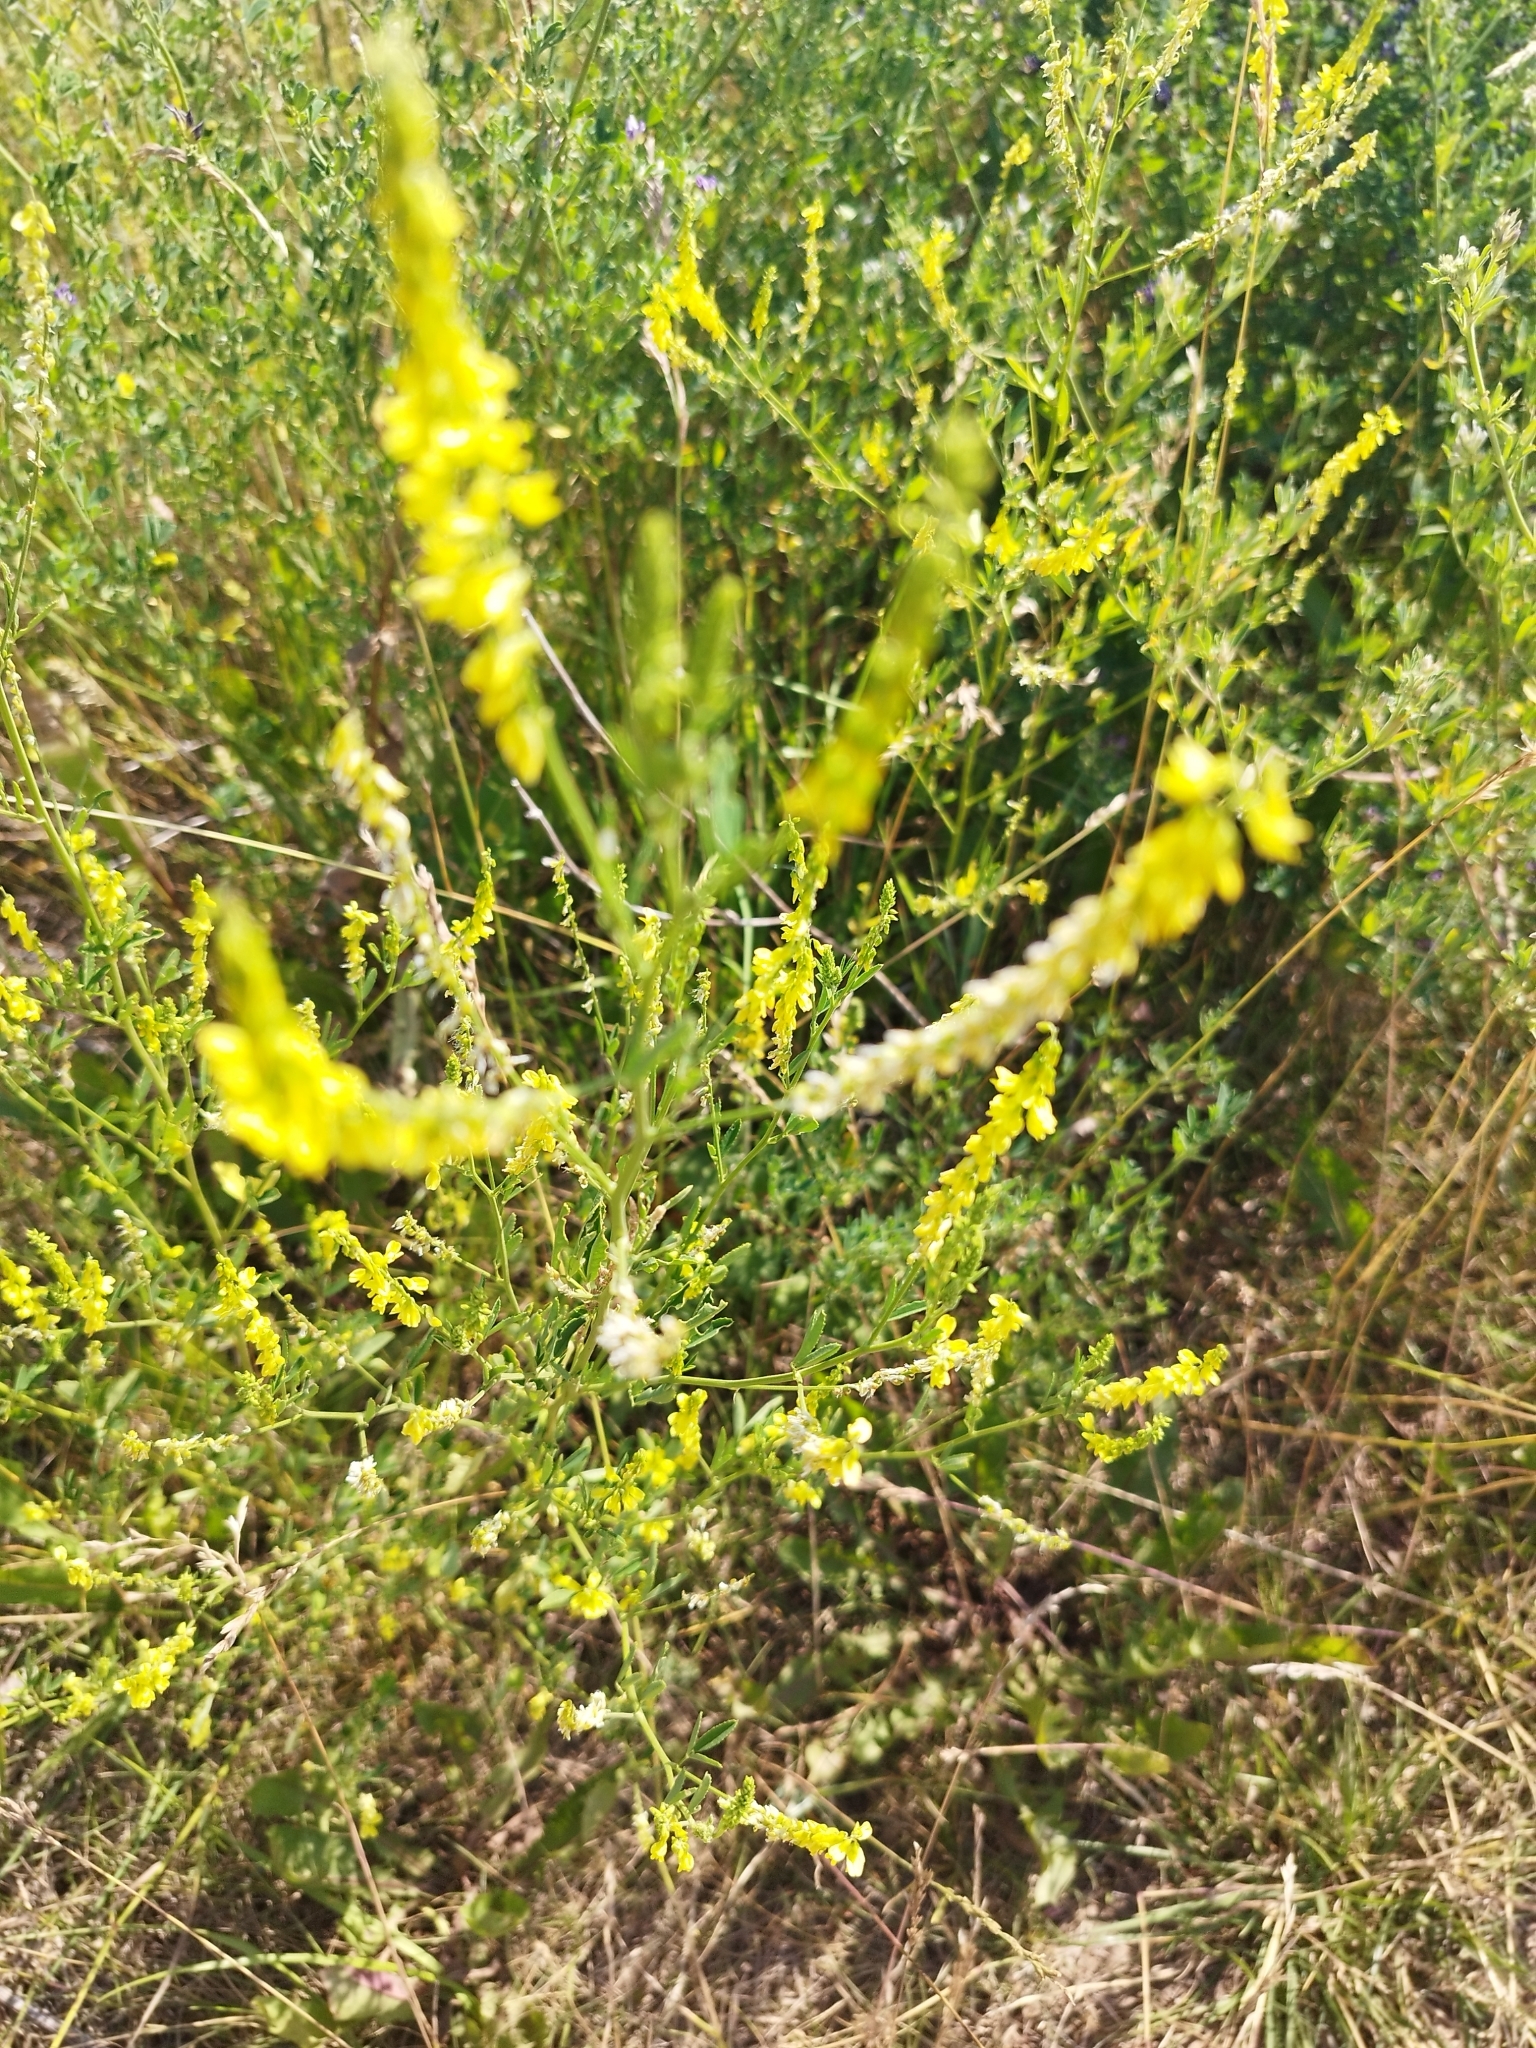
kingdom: Plantae
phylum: Tracheophyta
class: Magnoliopsida
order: Fabales
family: Fabaceae
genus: Melilotus
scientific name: Melilotus officinalis
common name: Sweetclover
